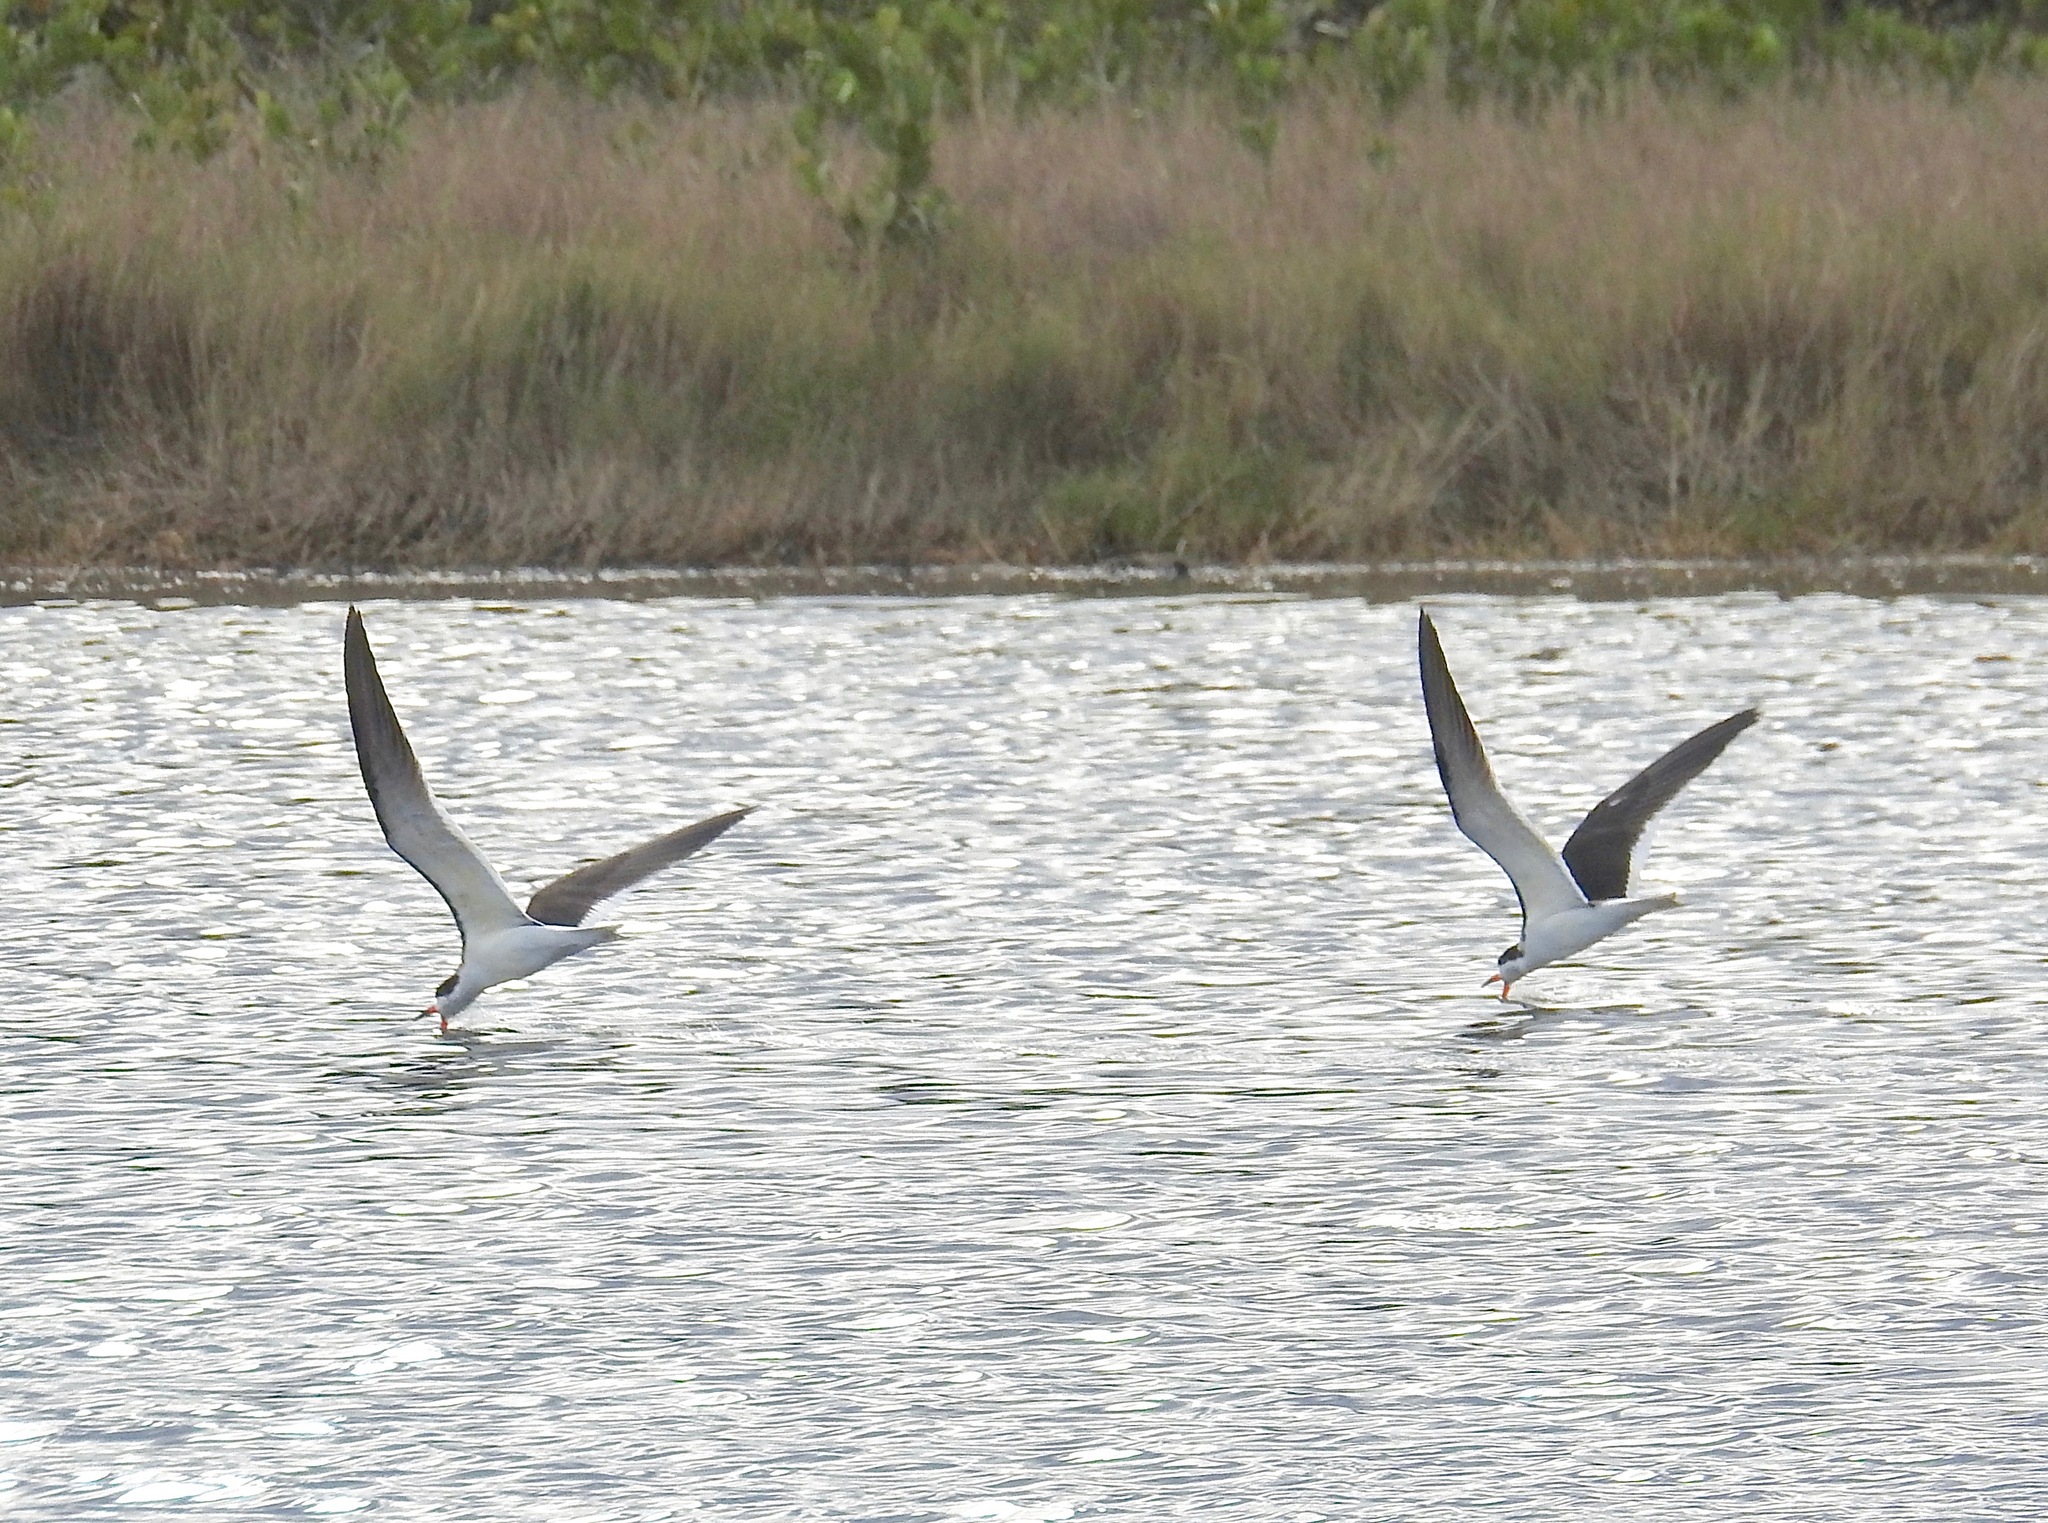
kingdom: Animalia
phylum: Chordata
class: Aves
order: Charadriiformes
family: Laridae
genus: Rynchops
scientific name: Rynchops niger
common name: Black skimmer
